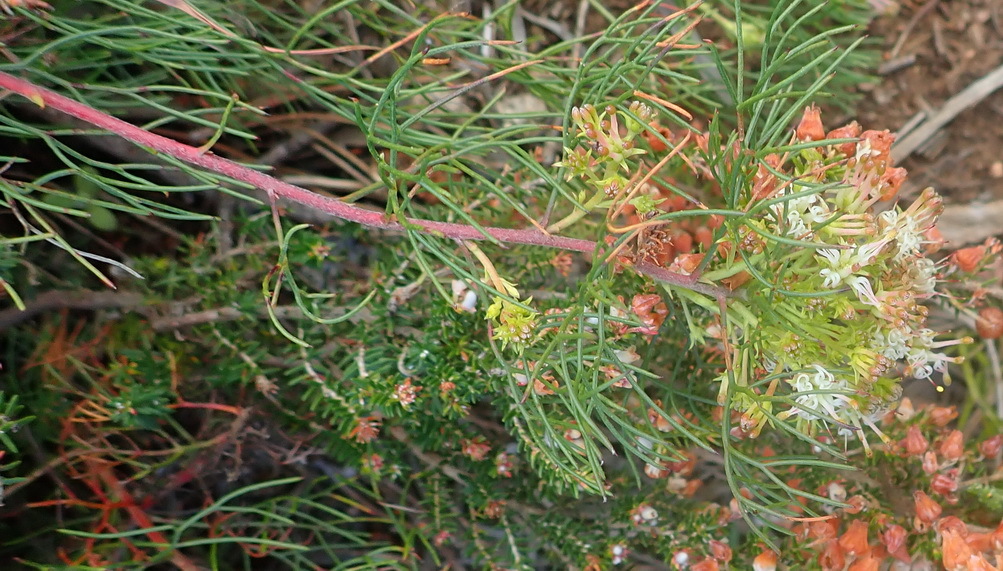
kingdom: Plantae
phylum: Tracheophyta
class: Magnoliopsida
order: Proteales
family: Proteaceae
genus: Serruria
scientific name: Serruria fasciflora
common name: Common pin spiderhead
